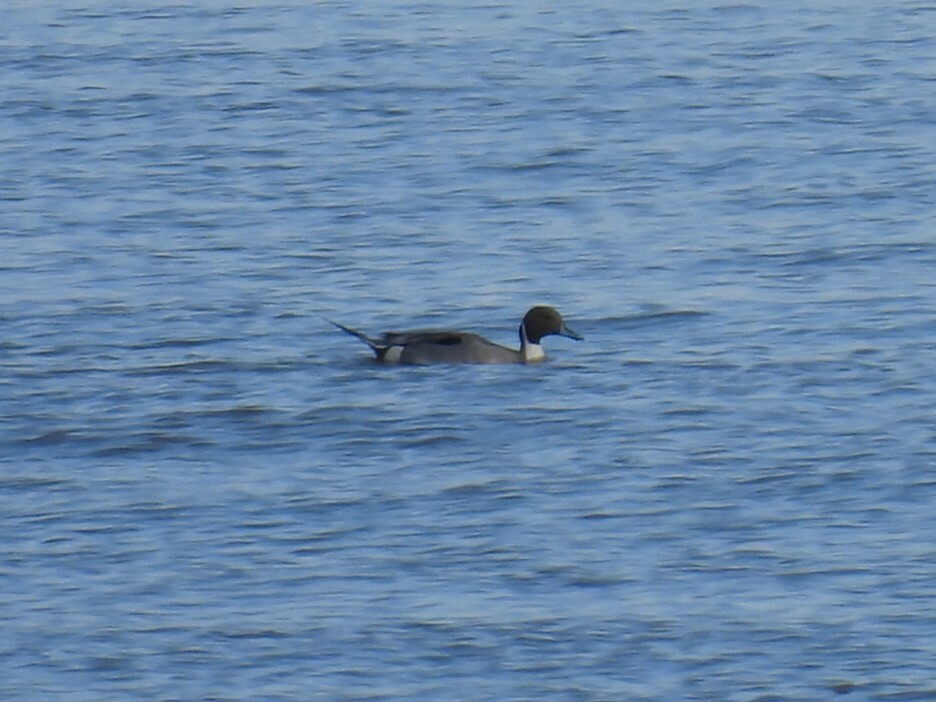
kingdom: Animalia
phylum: Chordata
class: Aves
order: Anseriformes
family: Anatidae
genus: Anas
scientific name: Anas acuta
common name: Northern pintail
